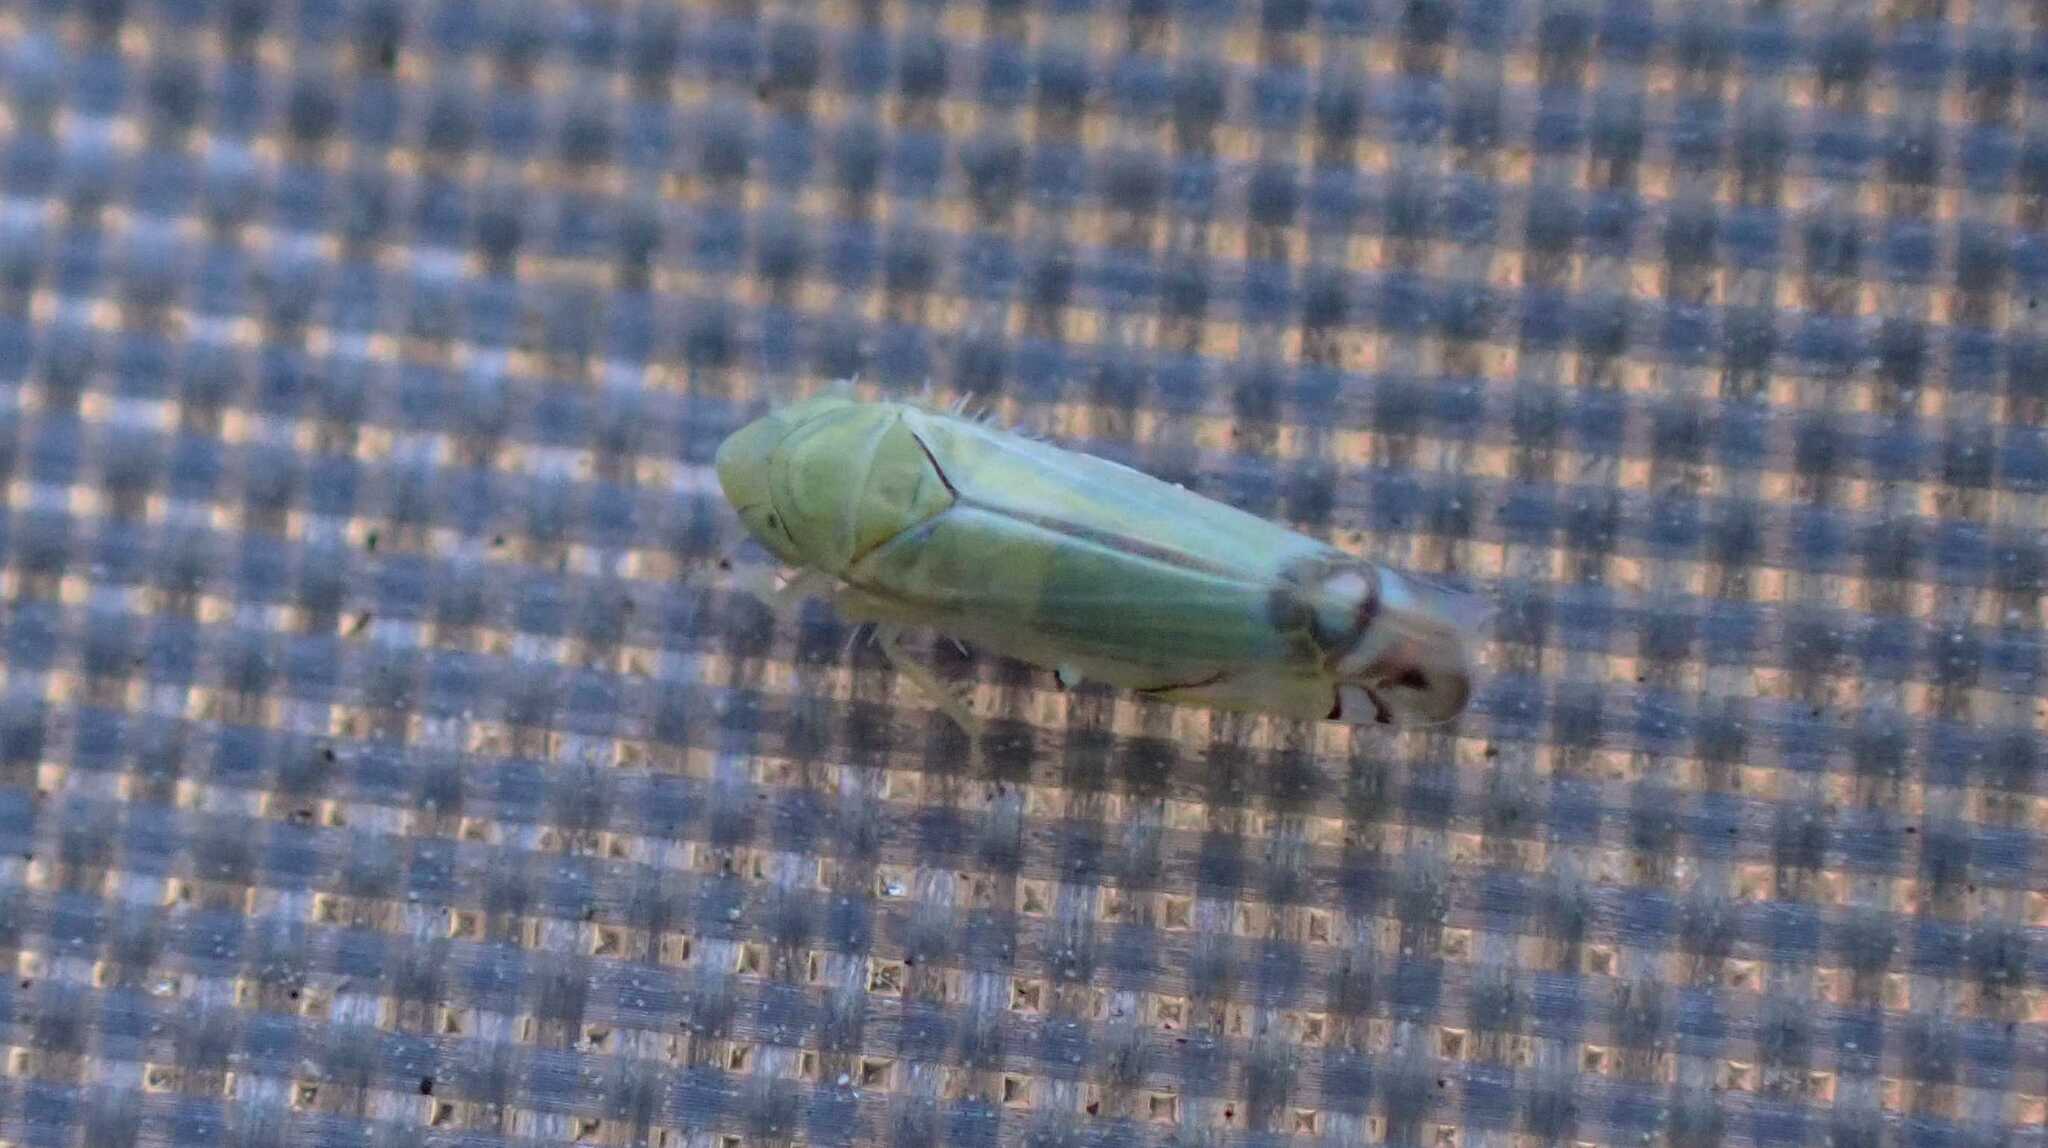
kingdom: Animalia
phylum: Arthropoda
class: Insecta
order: Hemiptera
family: Cicadellidae
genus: Zyginella
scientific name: Zyginella pulchra
